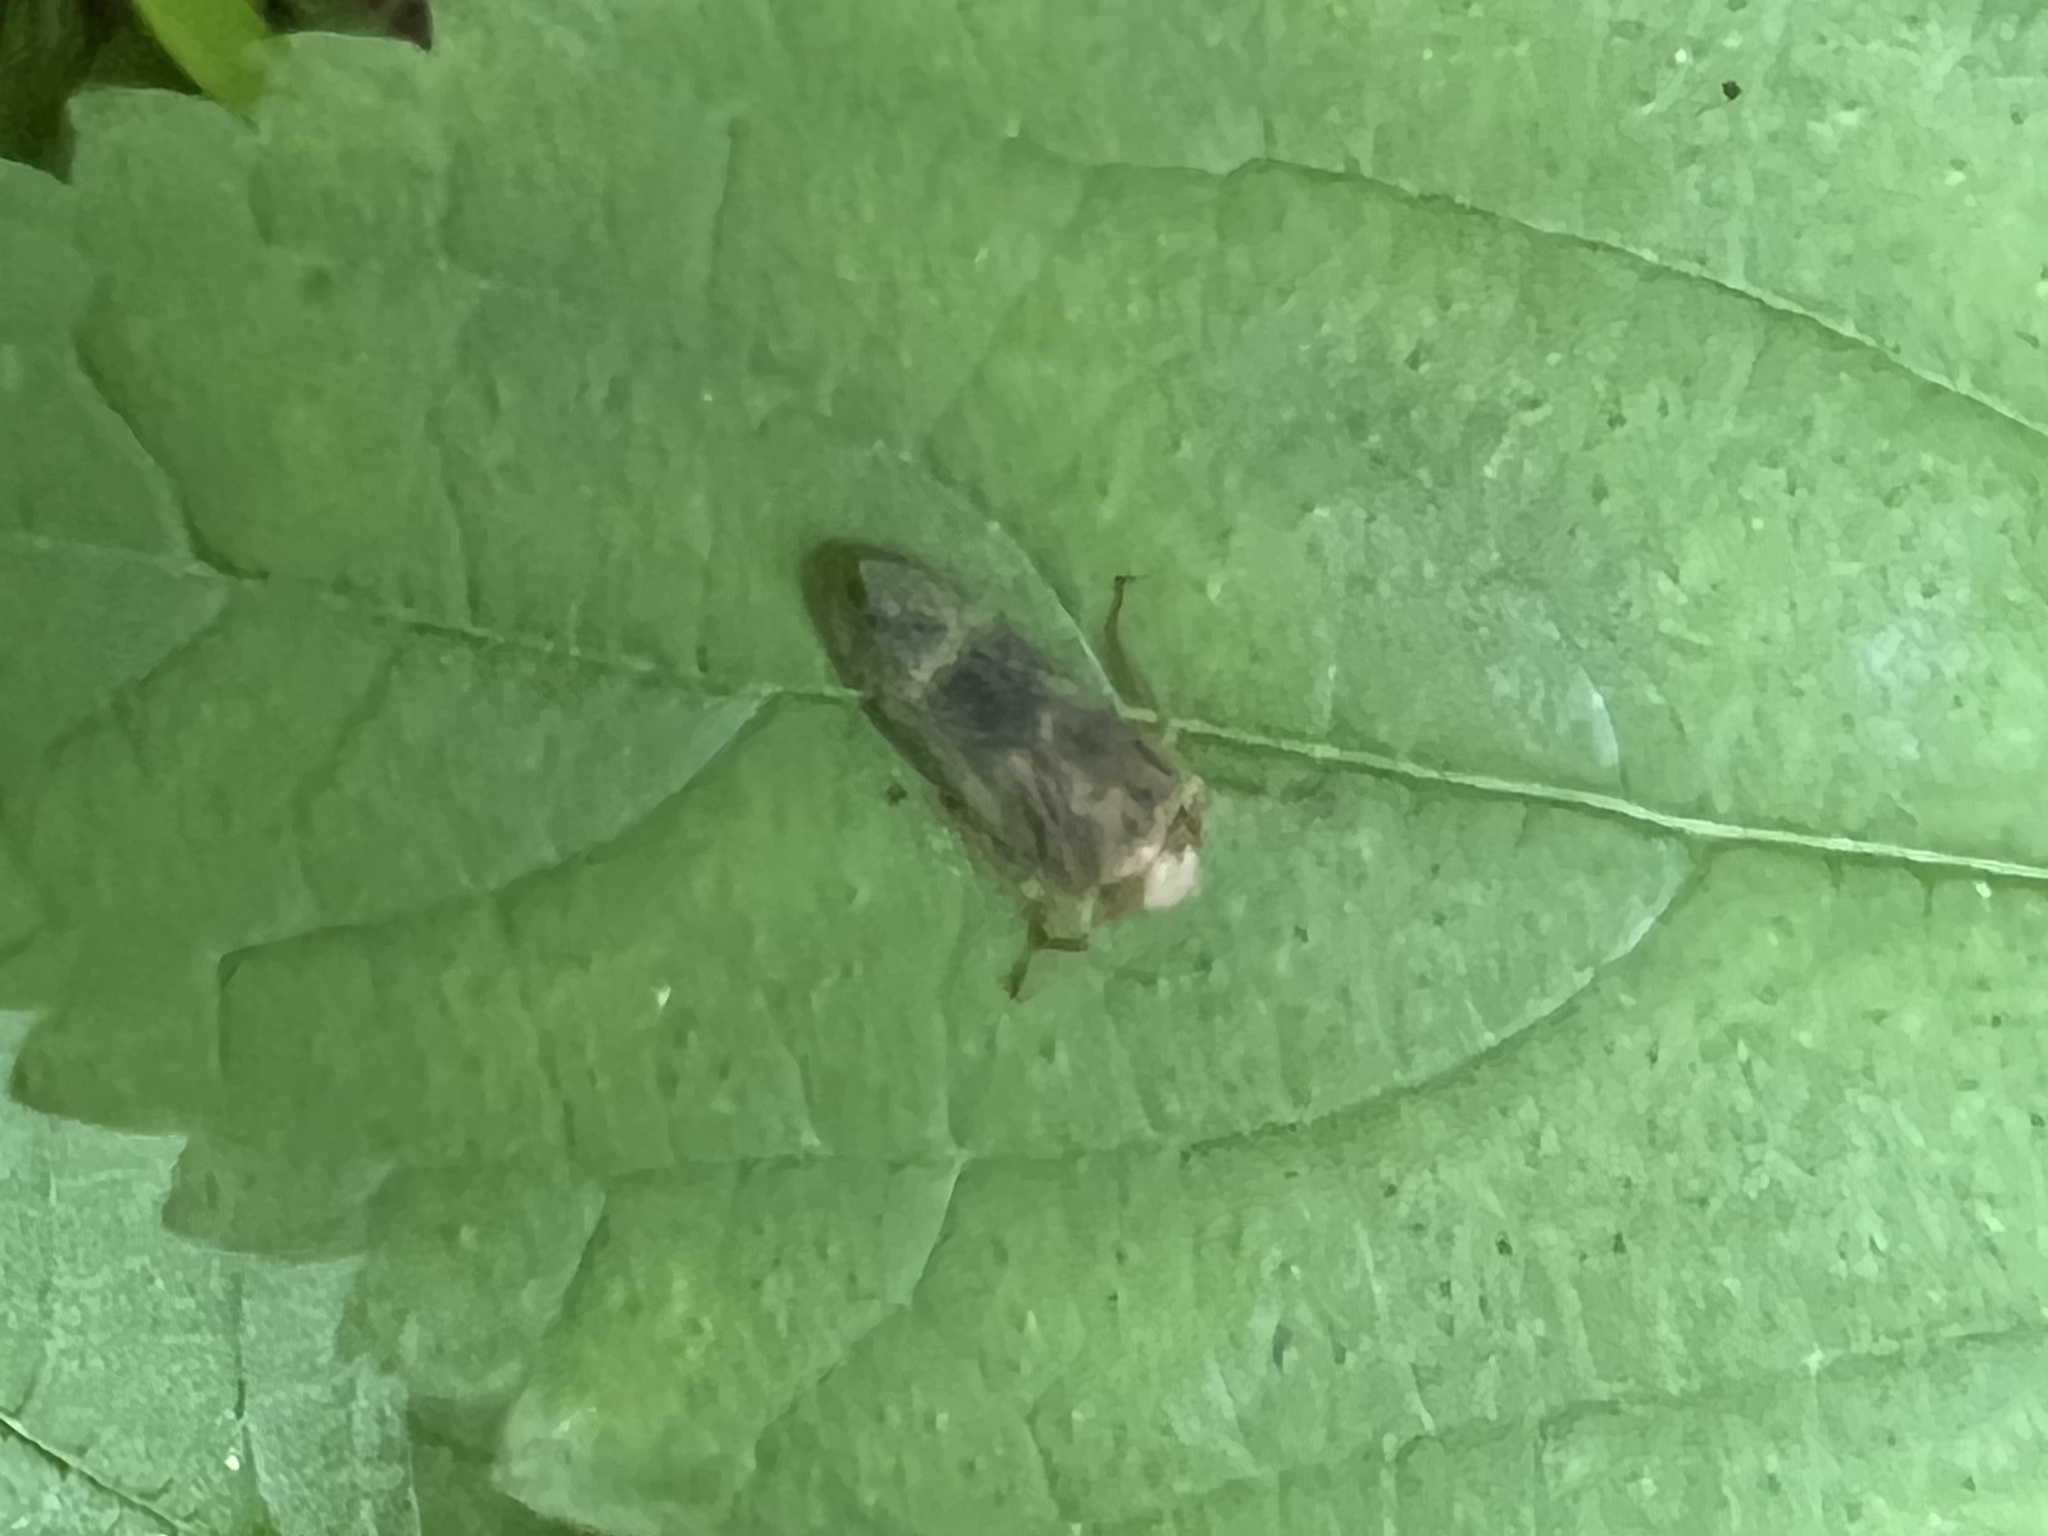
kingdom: Animalia
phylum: Arthropoda
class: Insecta
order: Hemiptera
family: Cicadellidae
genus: Jikradia
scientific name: Jikradia olitoria
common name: Coppery leafhopper
